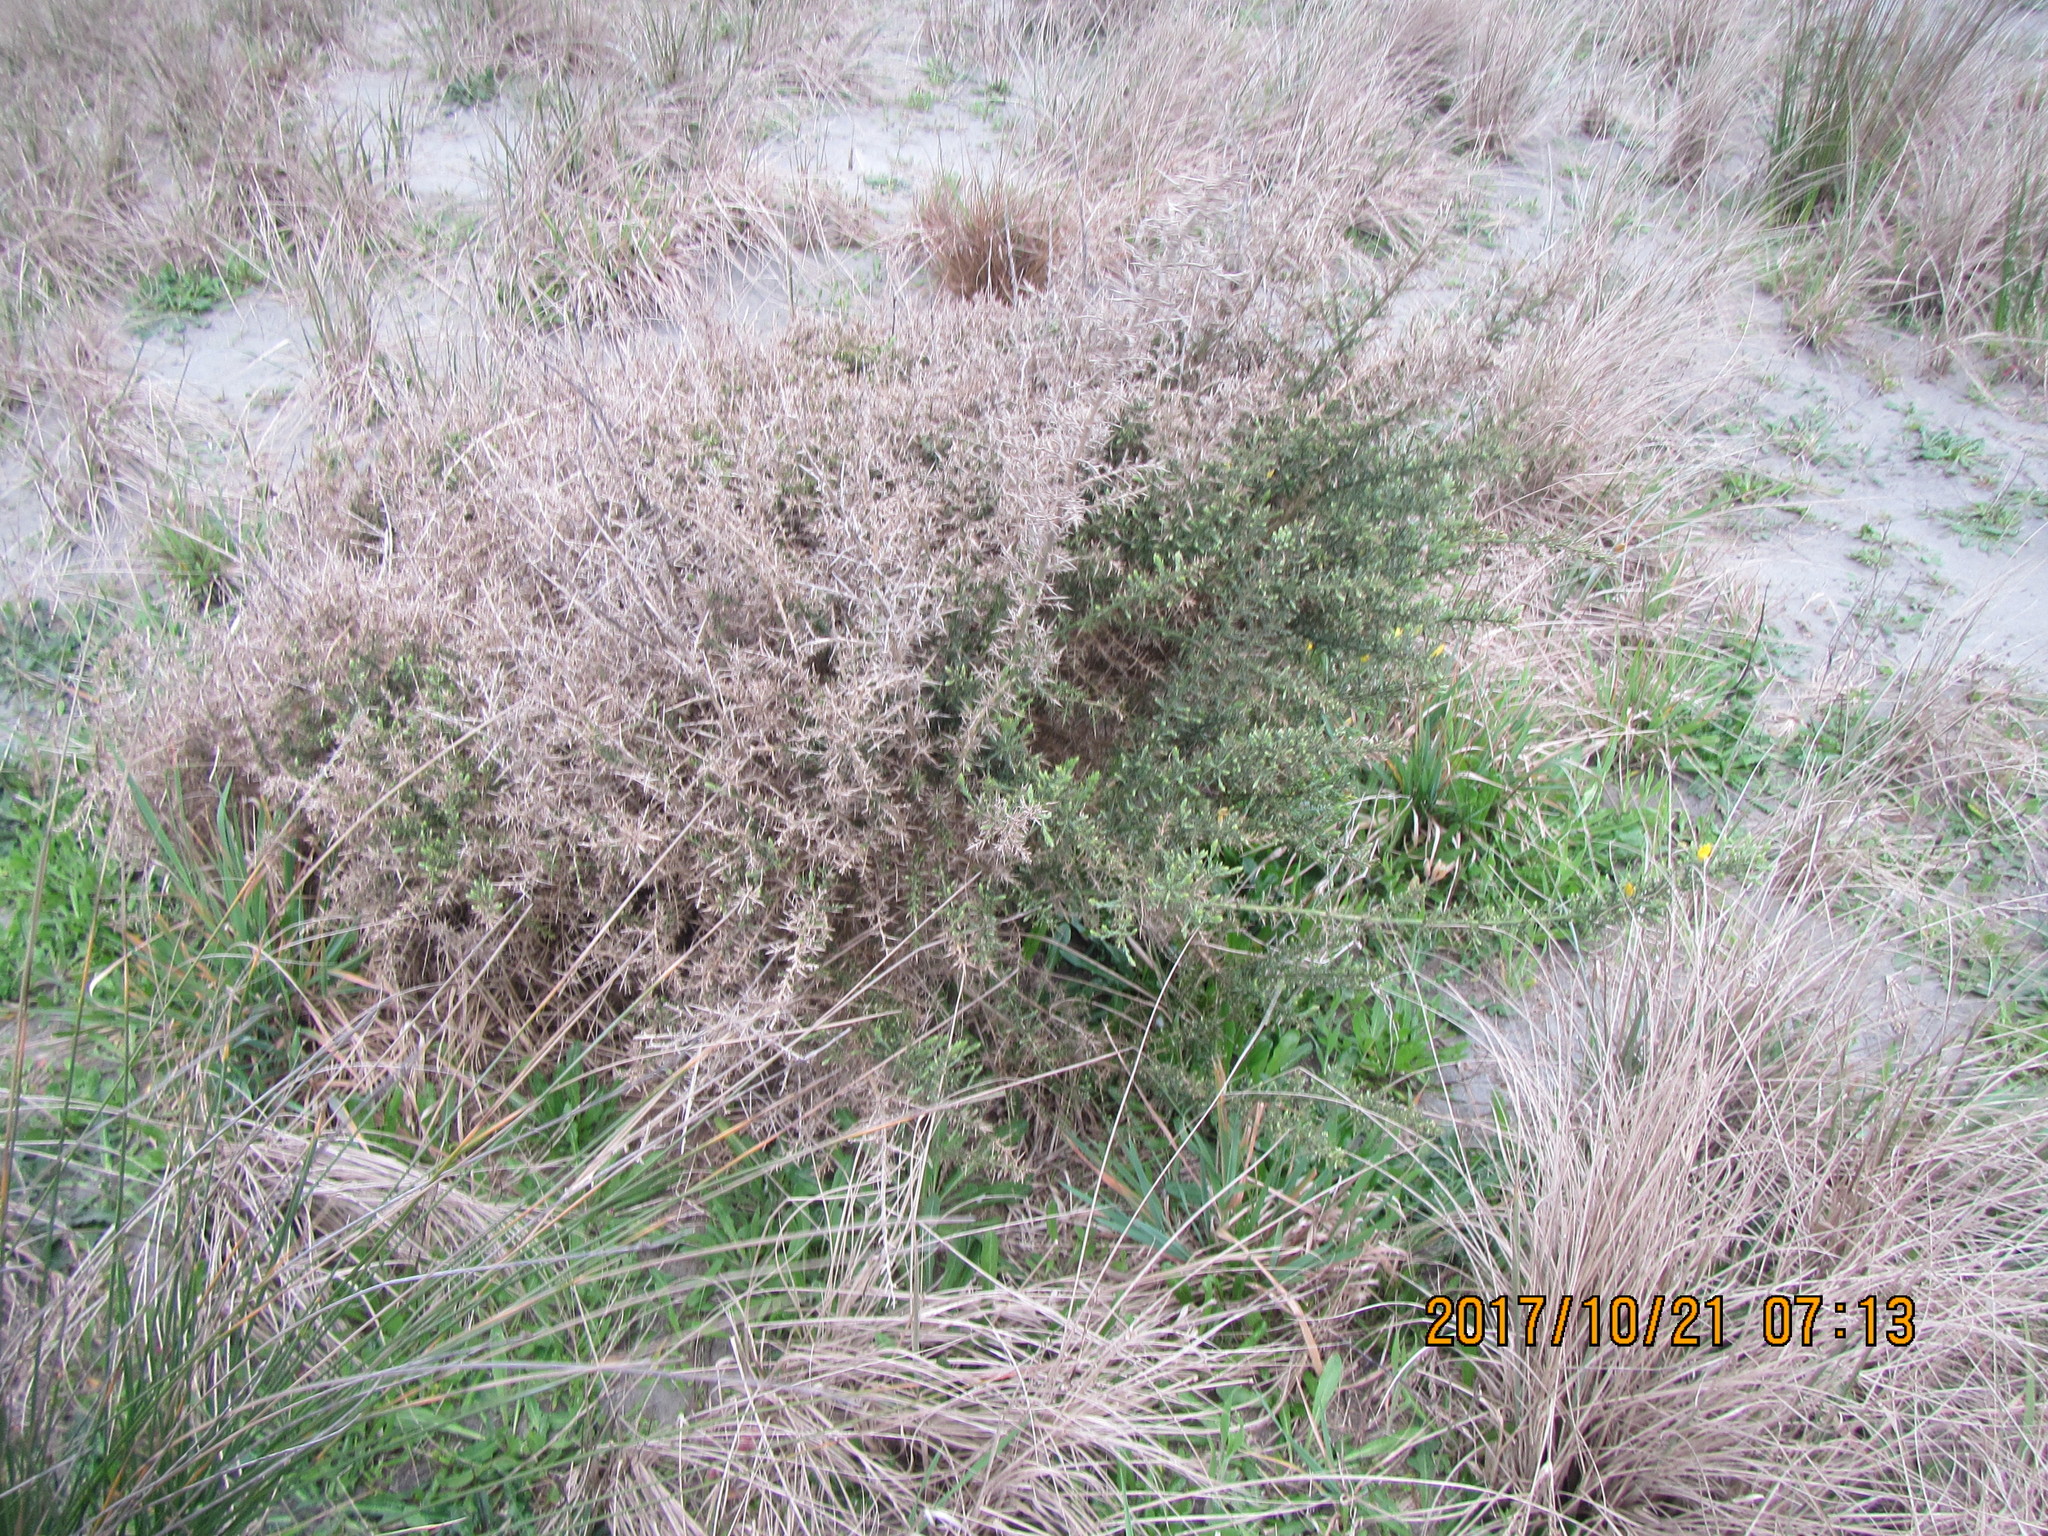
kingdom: Plantae
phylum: Tracheophyta
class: Magnoliopsida
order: Fabales
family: Fabaceae
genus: Ulex
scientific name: Ulex europaeus
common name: Common gorse
